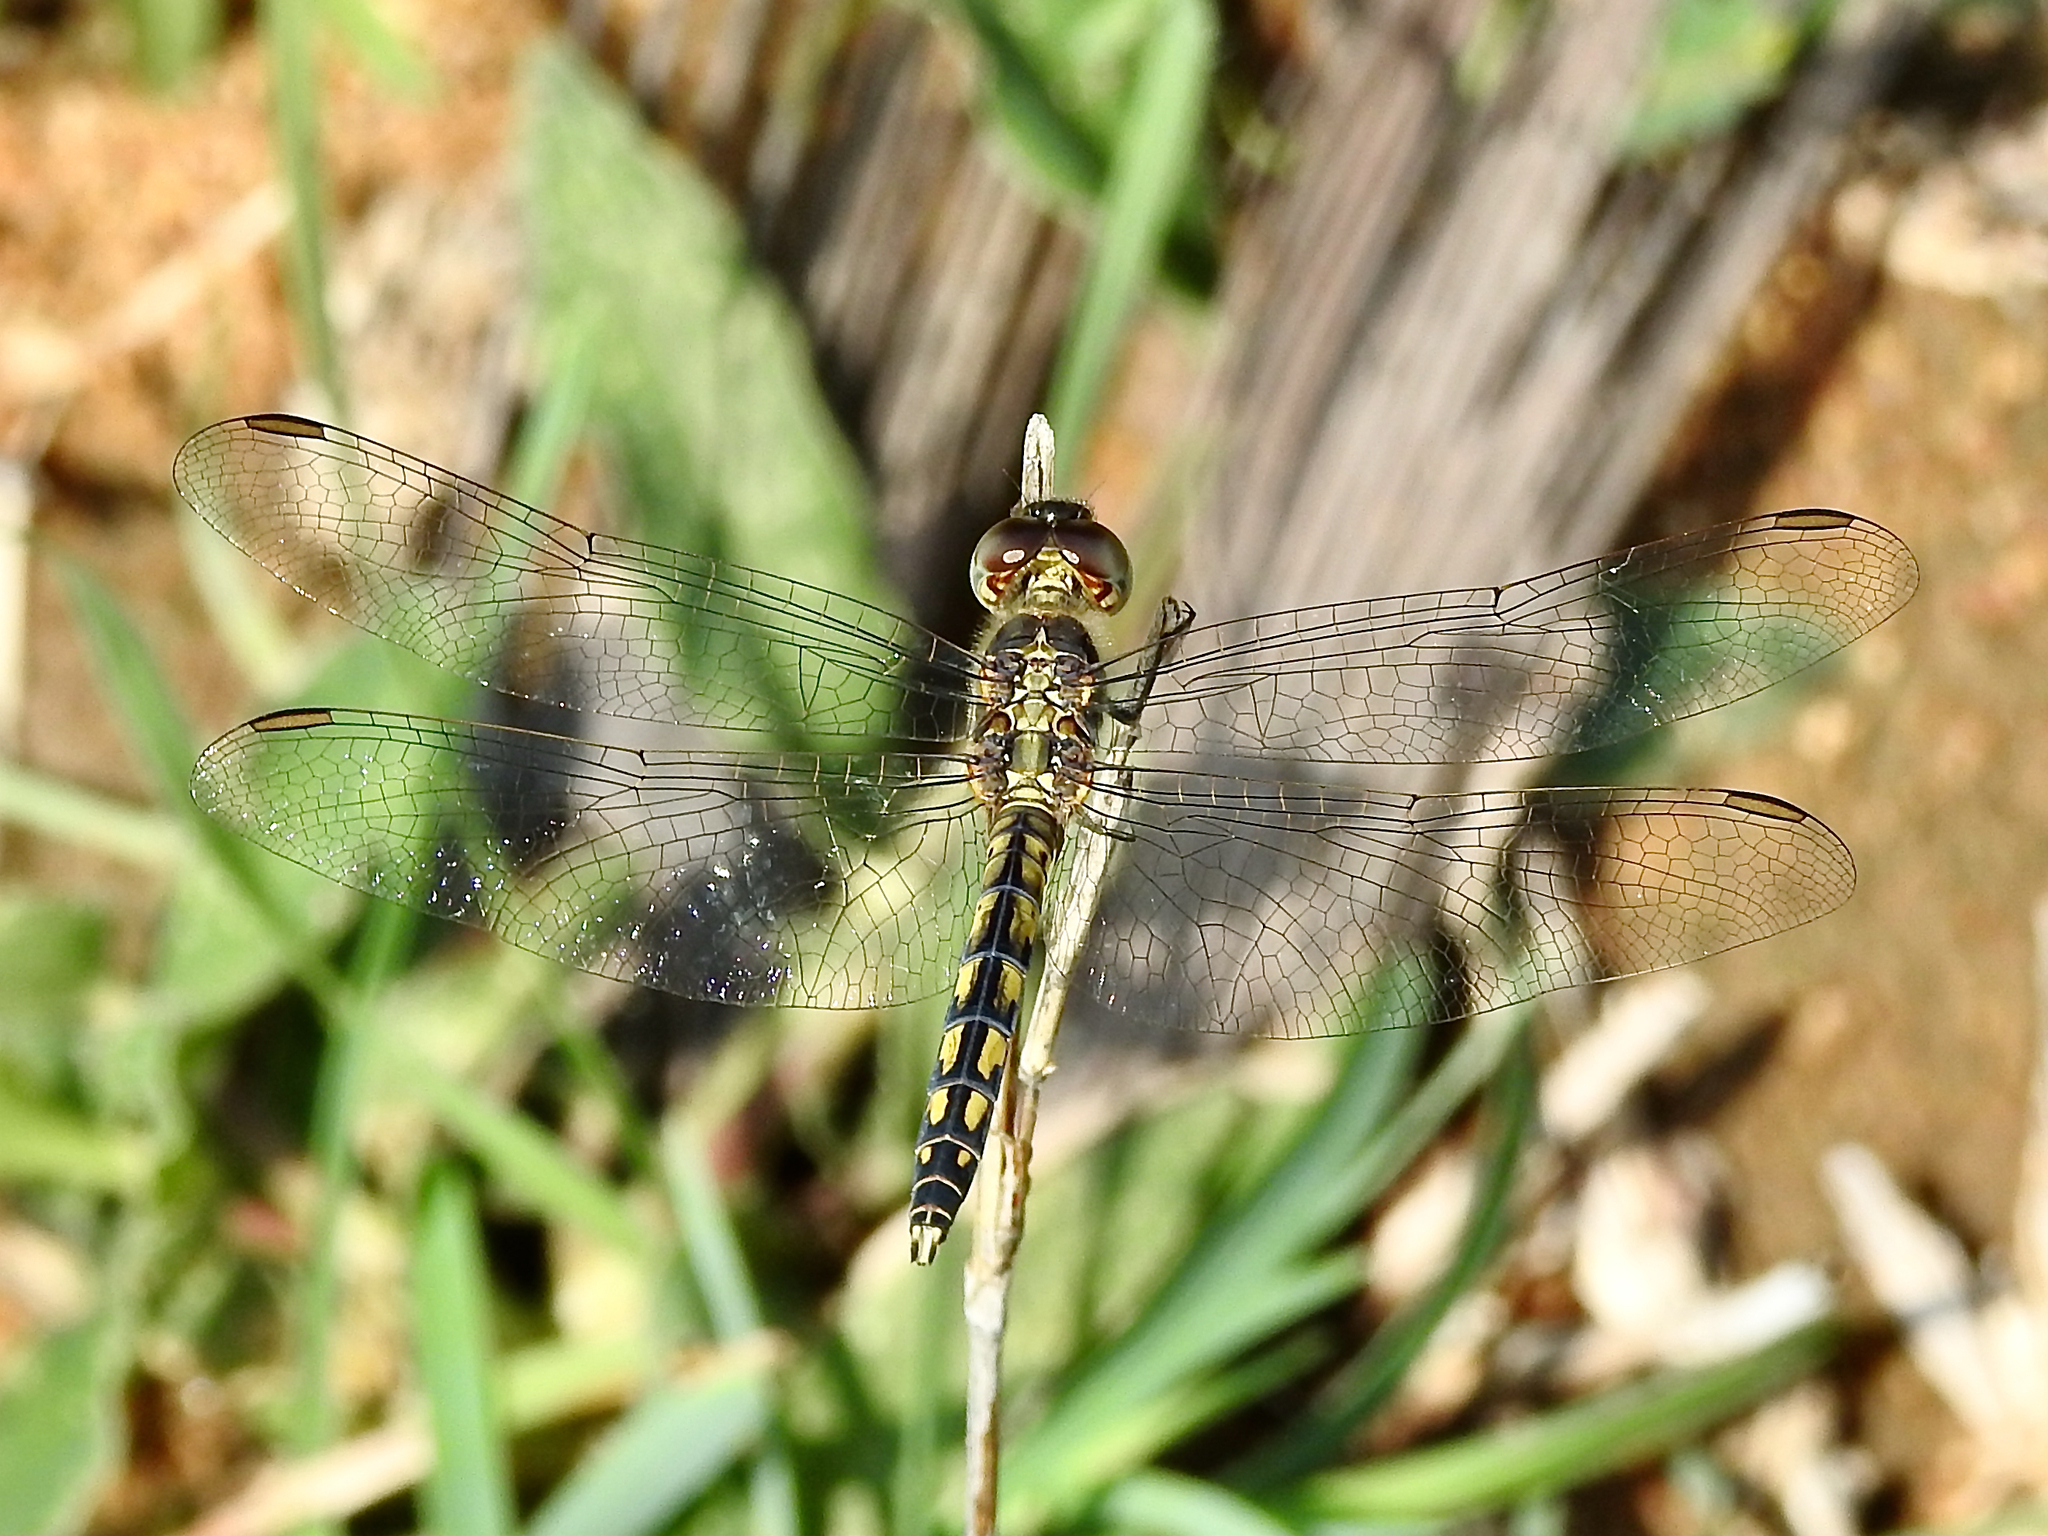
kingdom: Animalia
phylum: Arthropoda
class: Insecta
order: Odonata
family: Libellulidae
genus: Indothemis
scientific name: Indothemis carnatica
